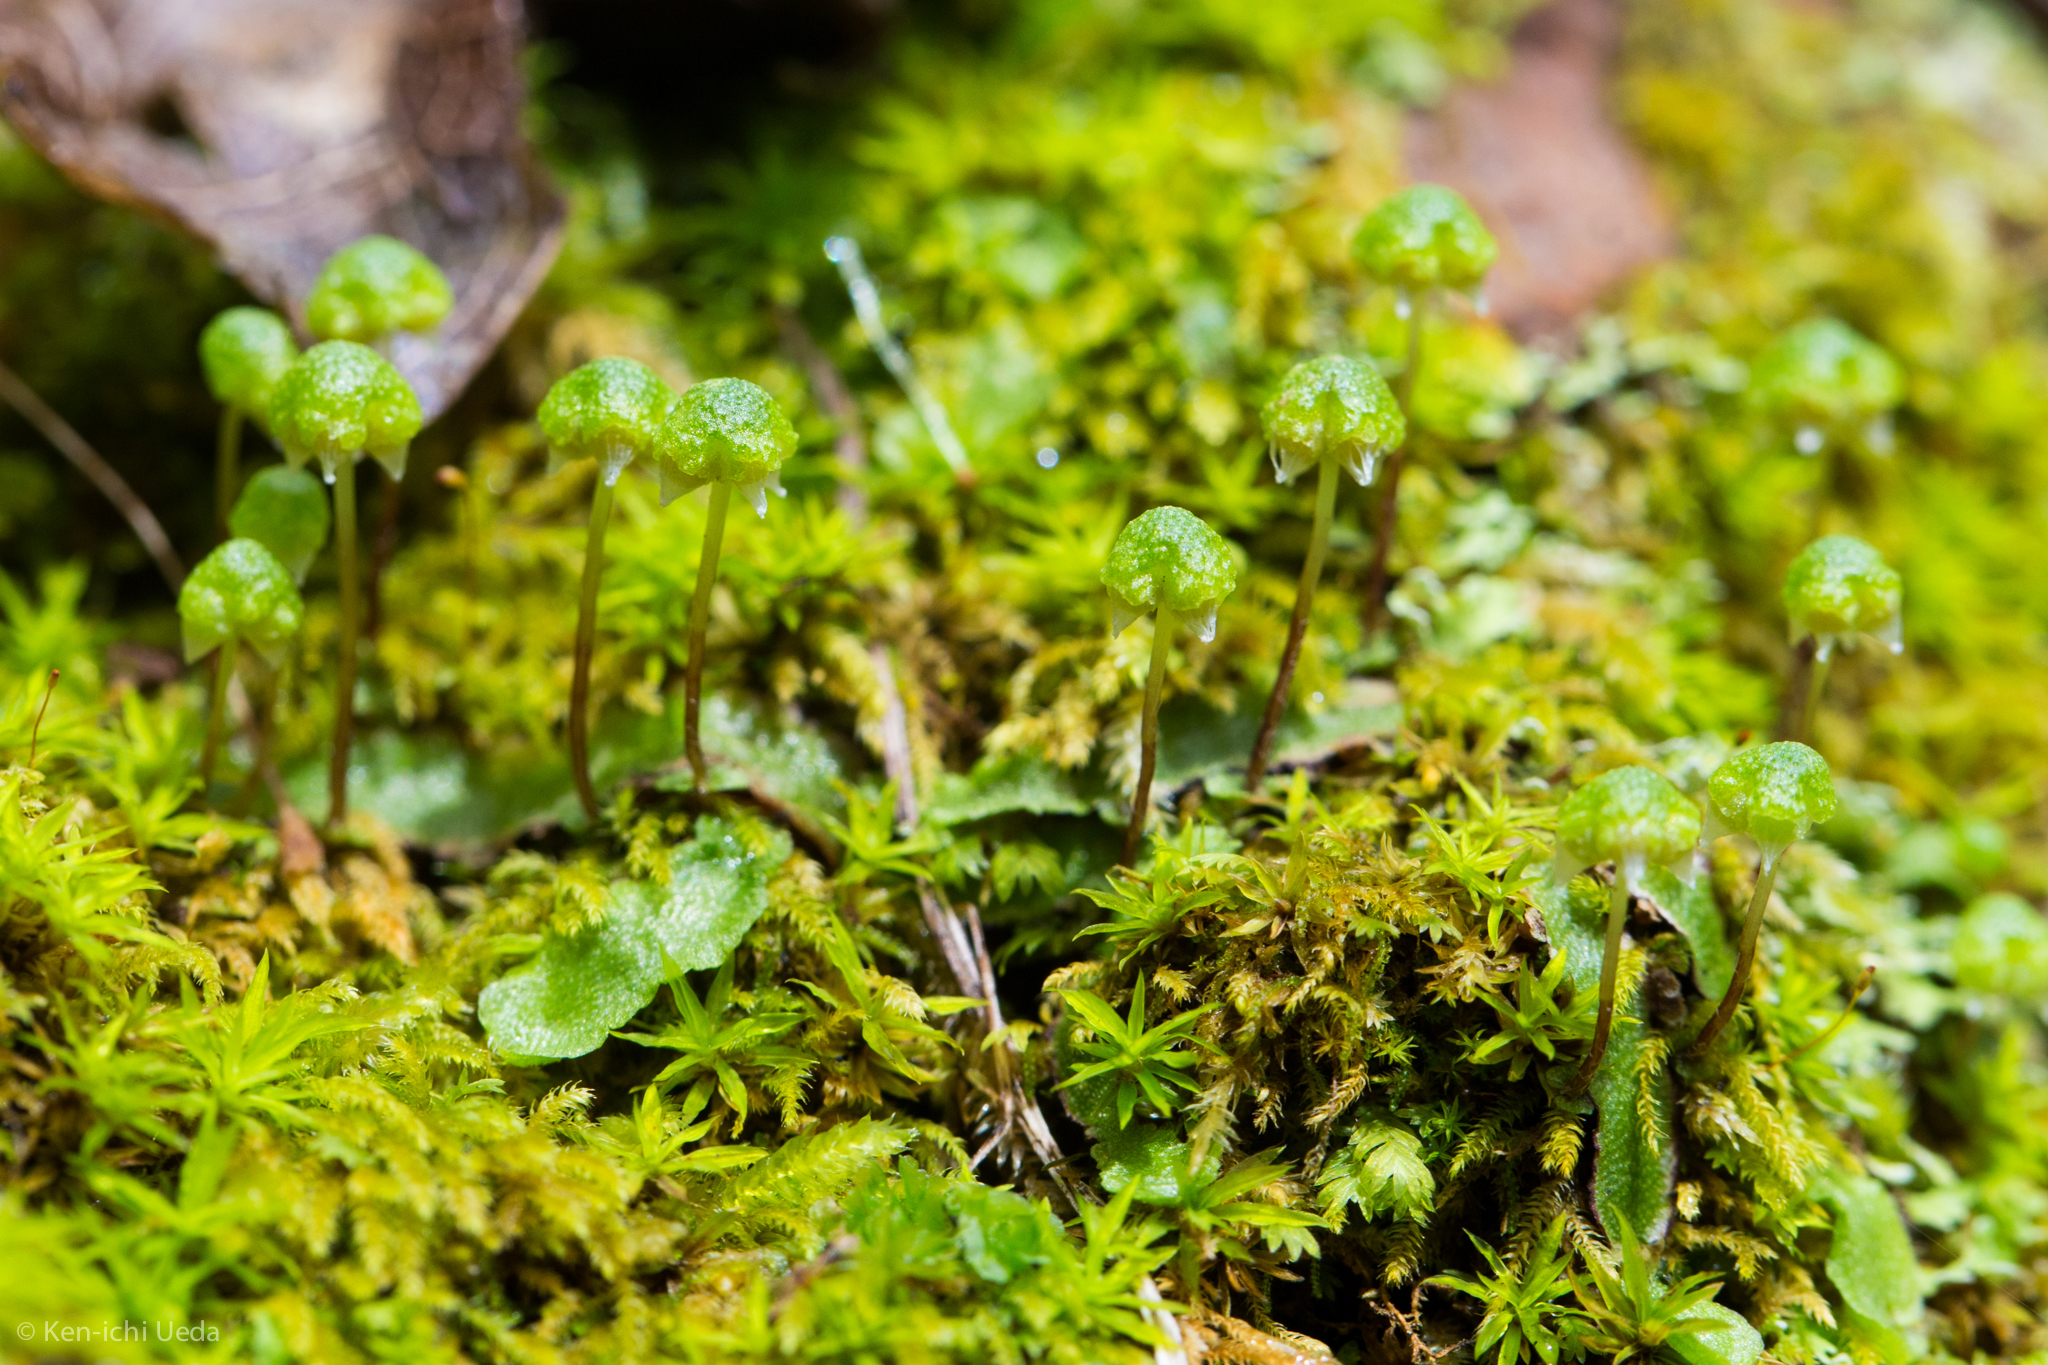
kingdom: Plantae
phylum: Marchantiophyta
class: Marchantiopsida
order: Marchantiales
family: Aytoniaceae
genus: Asterella
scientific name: Asterella bolanderi
